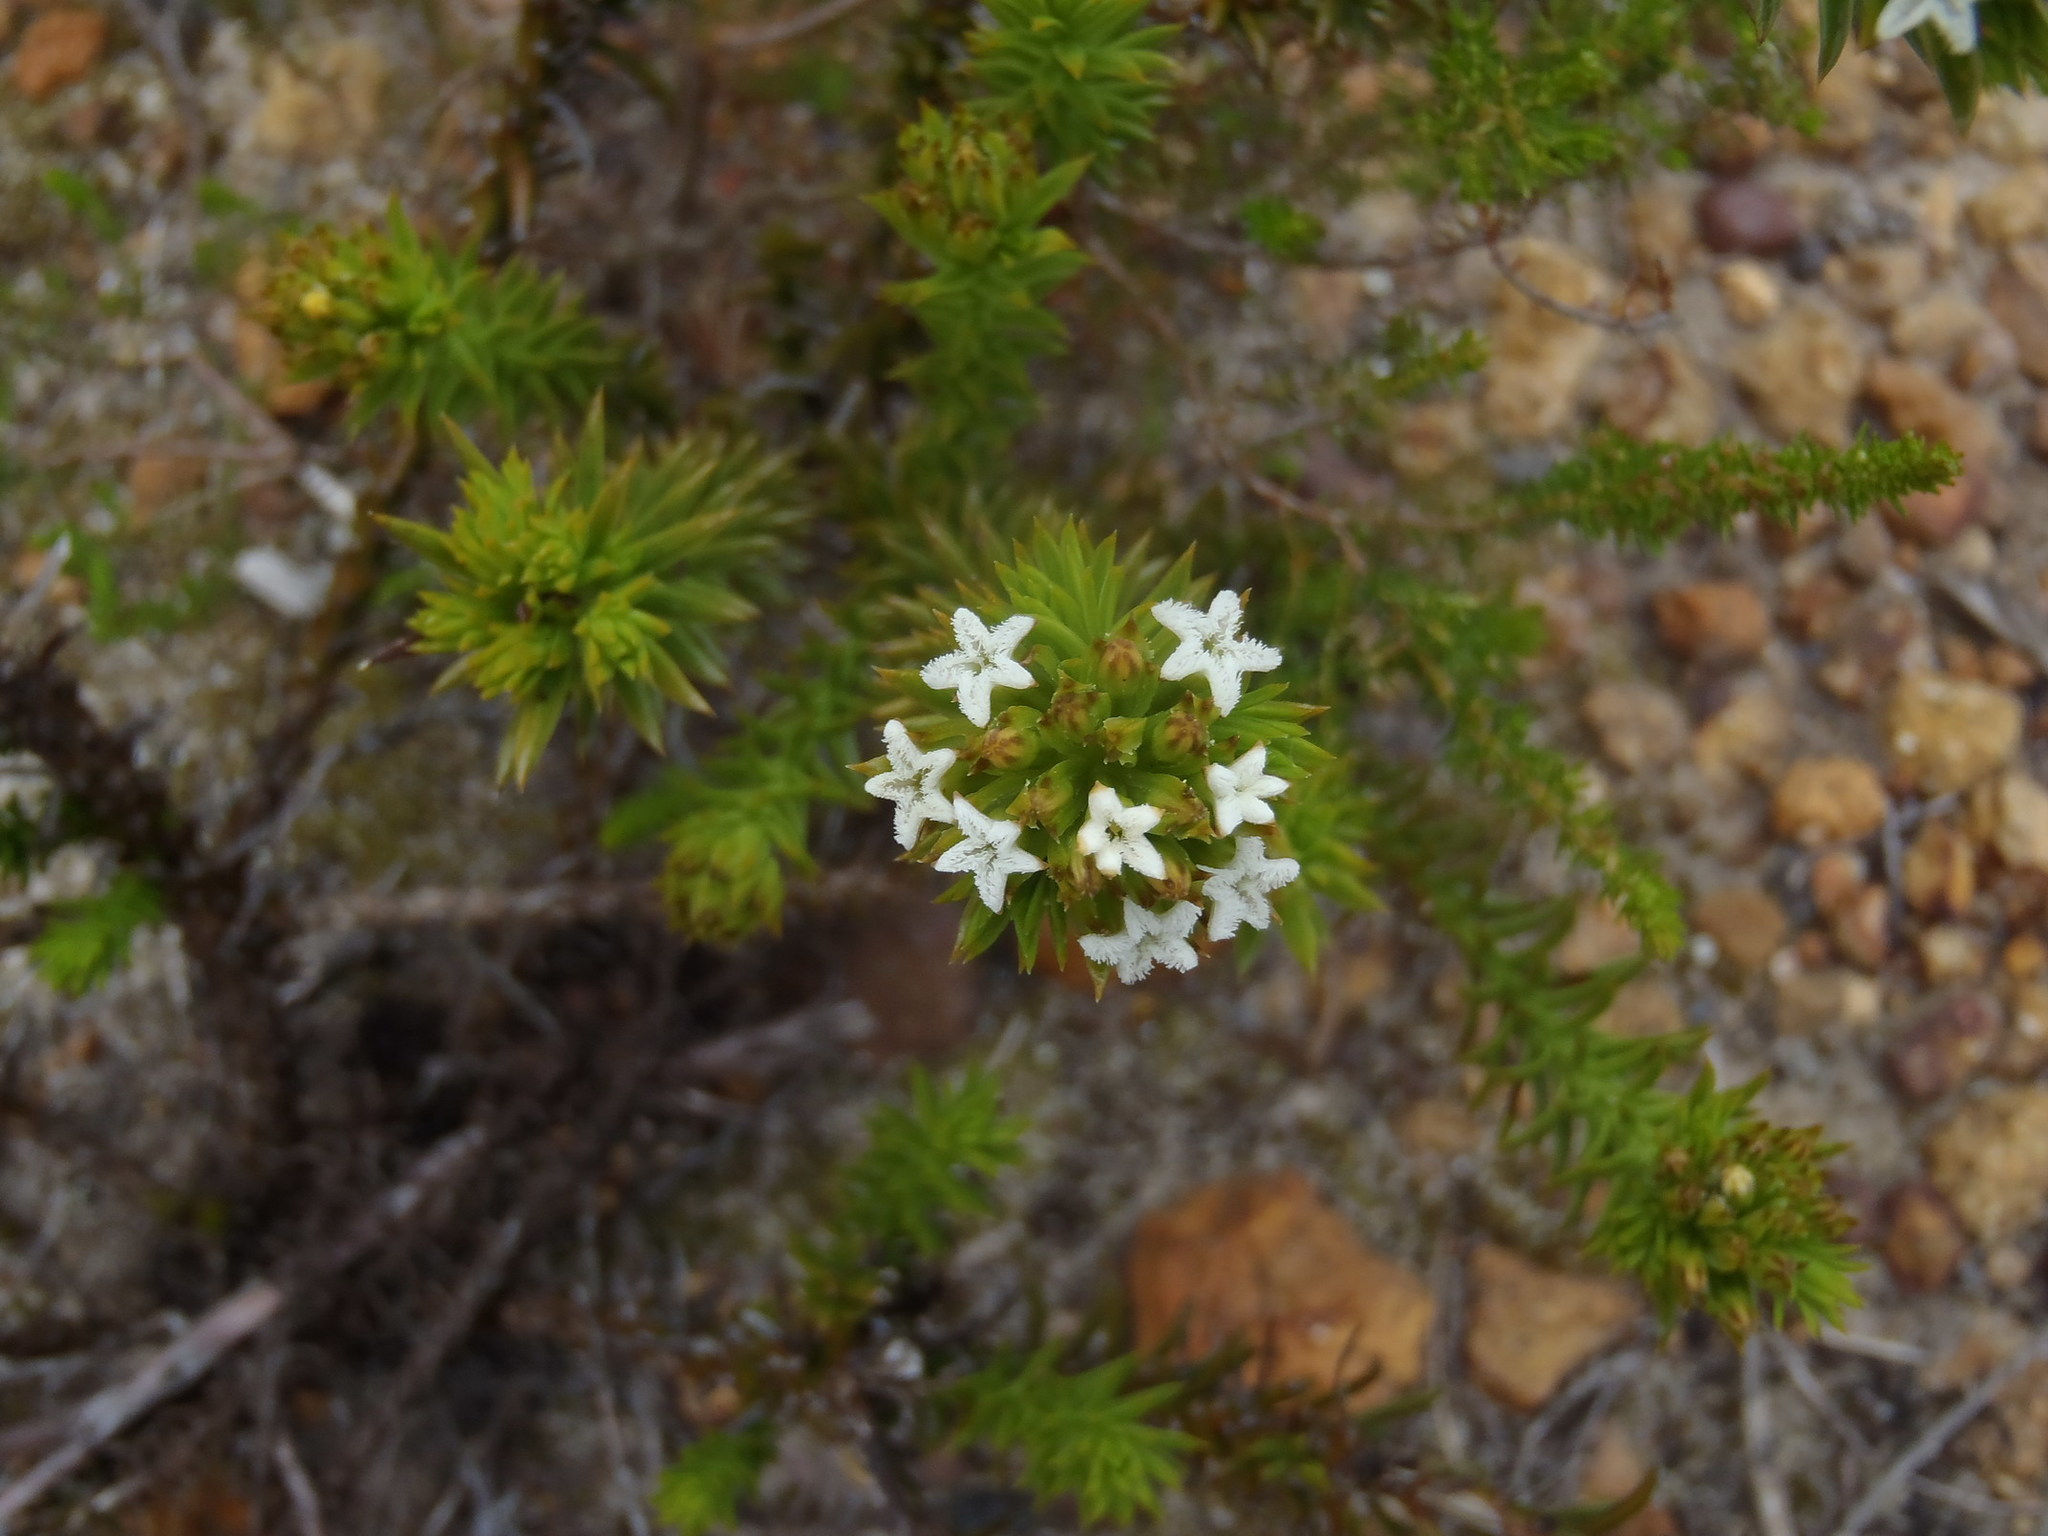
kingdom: Plantae
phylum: Tracheophyta
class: Magnoliopsida
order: Santalales
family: Thesiaceae
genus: Thesium
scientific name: Thesium viridifolium
